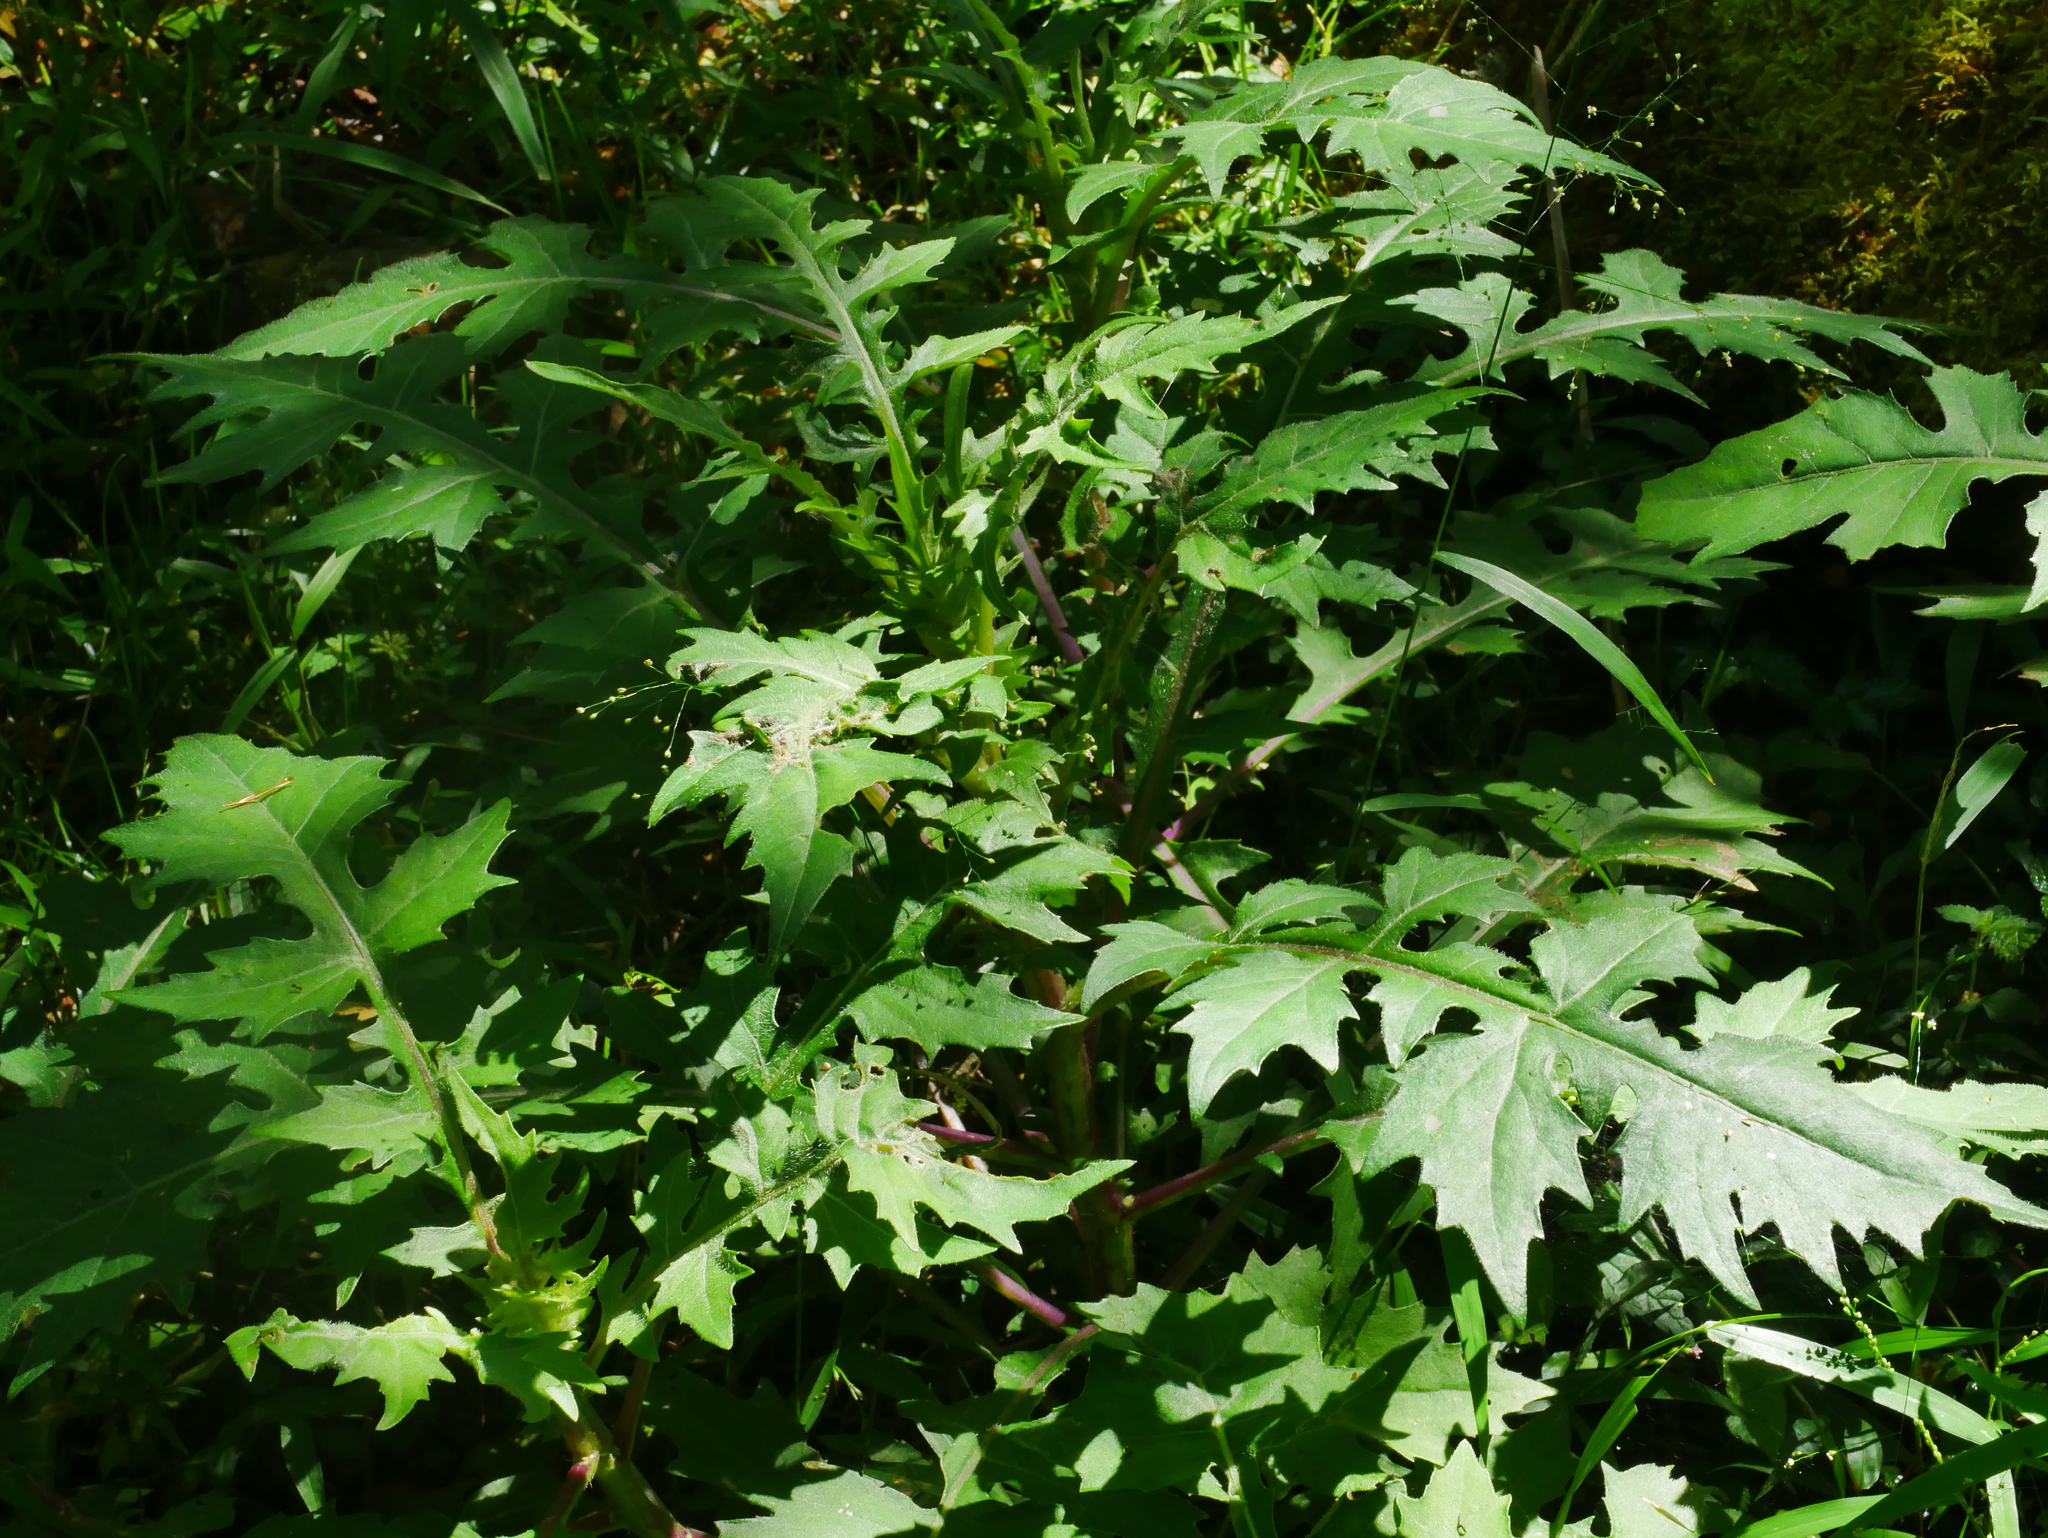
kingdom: Plantae
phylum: Tracheophyta
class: Magnoliopsida
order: Asterales
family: Asteraceae
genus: Gynura
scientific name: Gynura japonica
